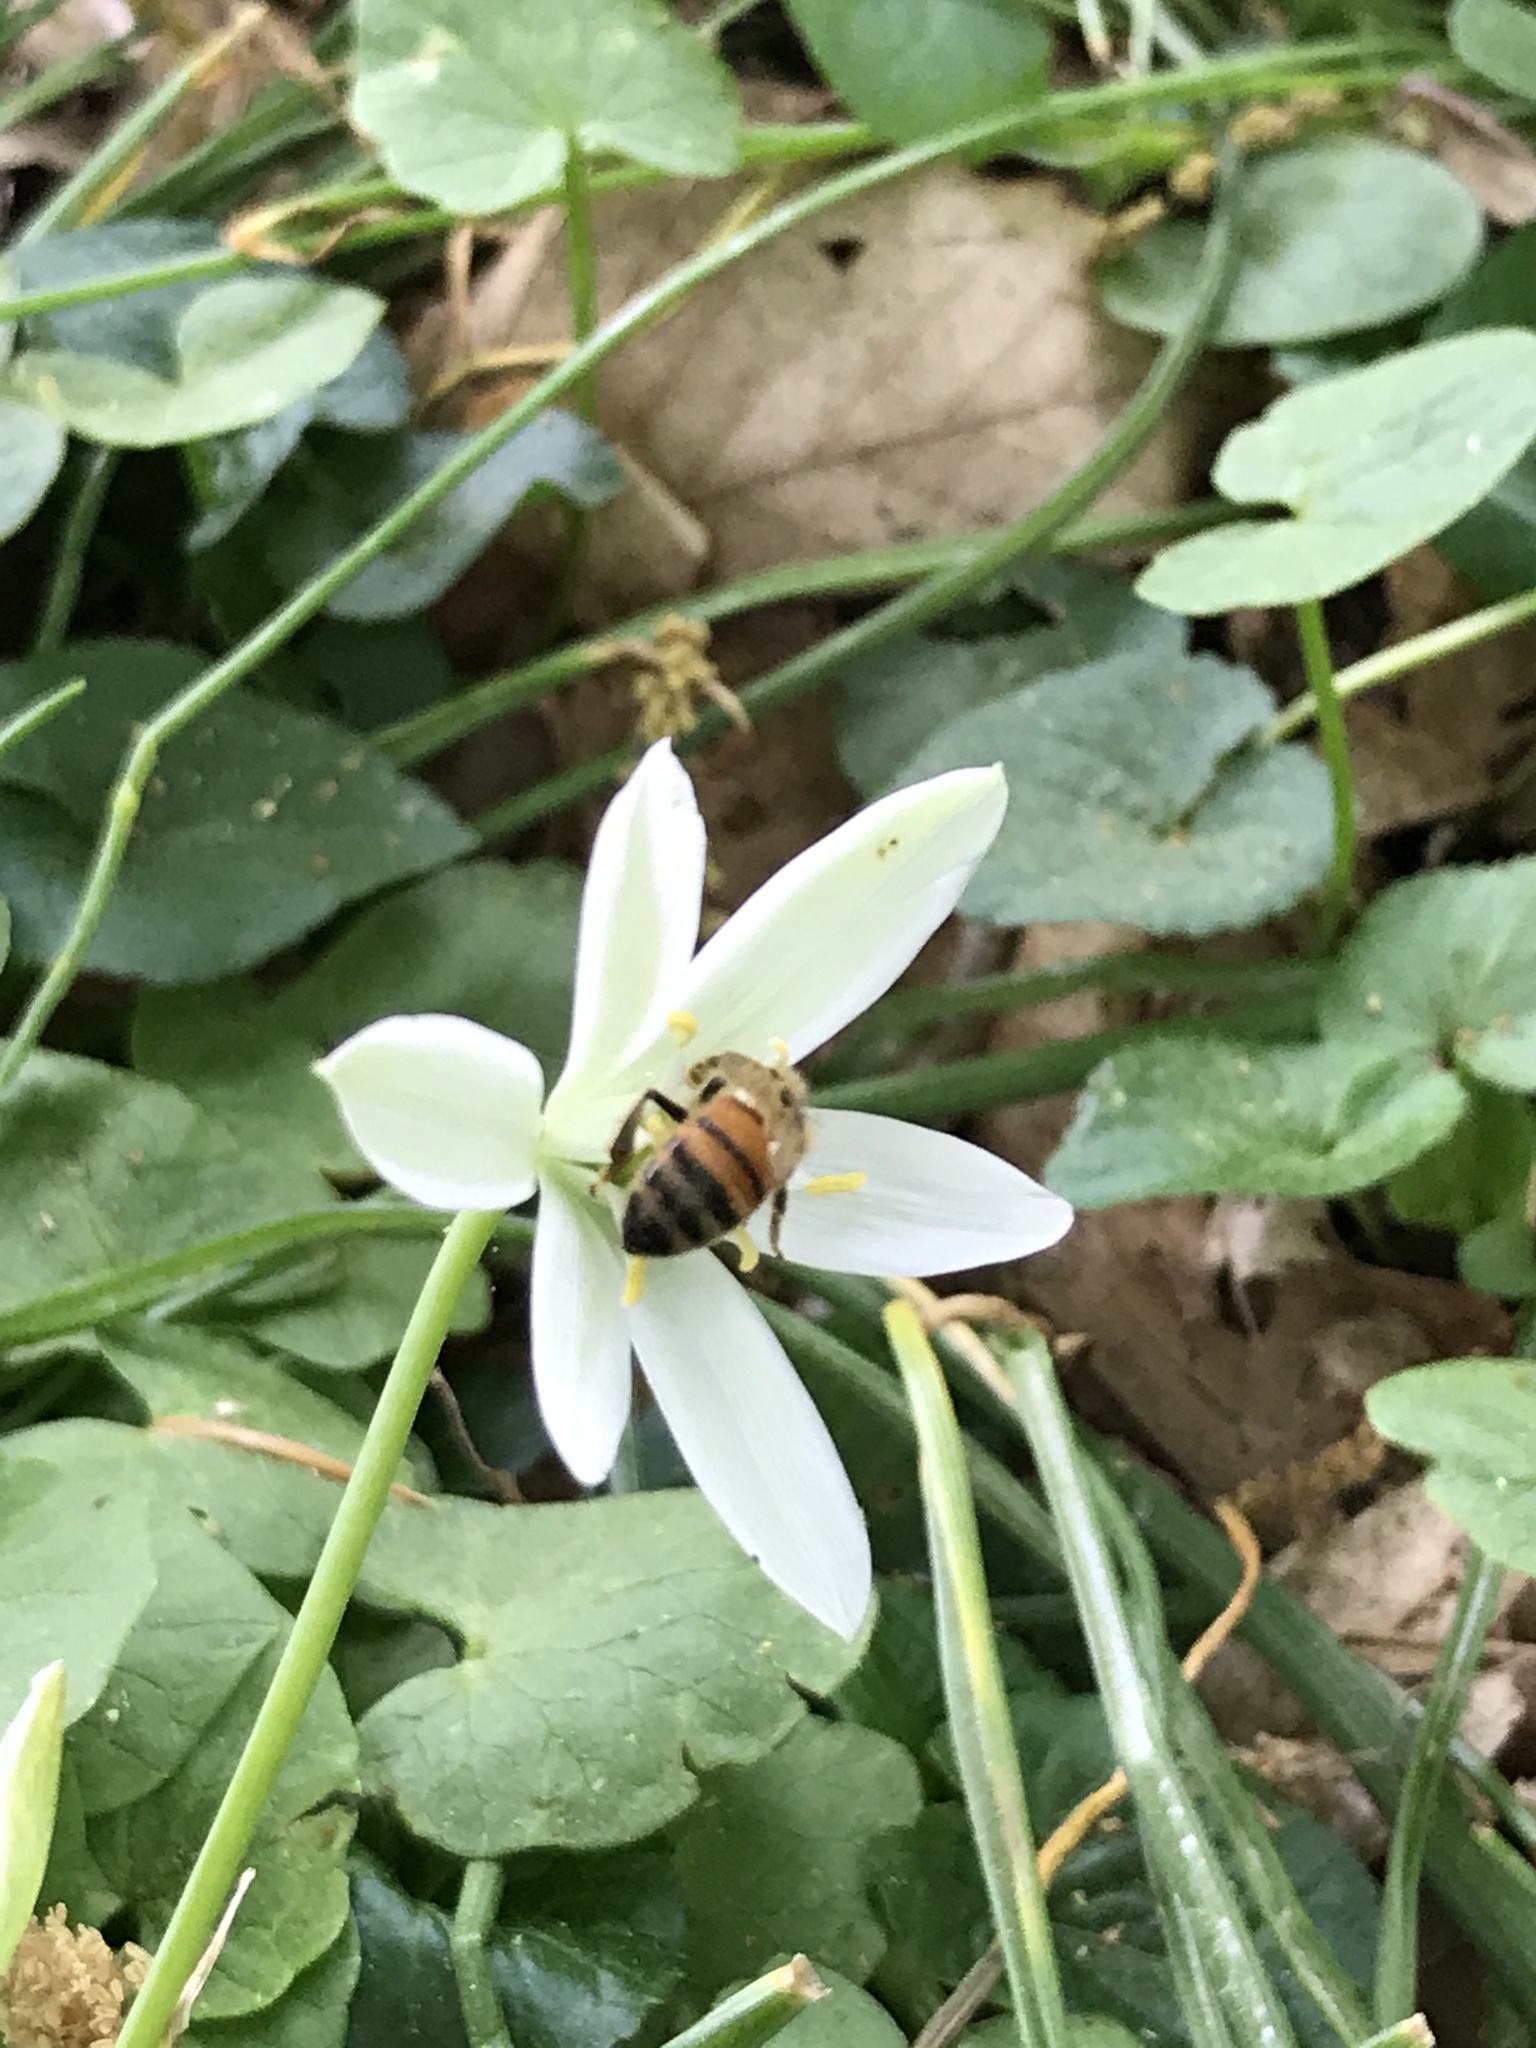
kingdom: Animalia
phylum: Arthropoda
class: Insecta
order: Hymenoptera
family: Apidae
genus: Apis
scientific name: Apis mellifera
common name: Honey bee
